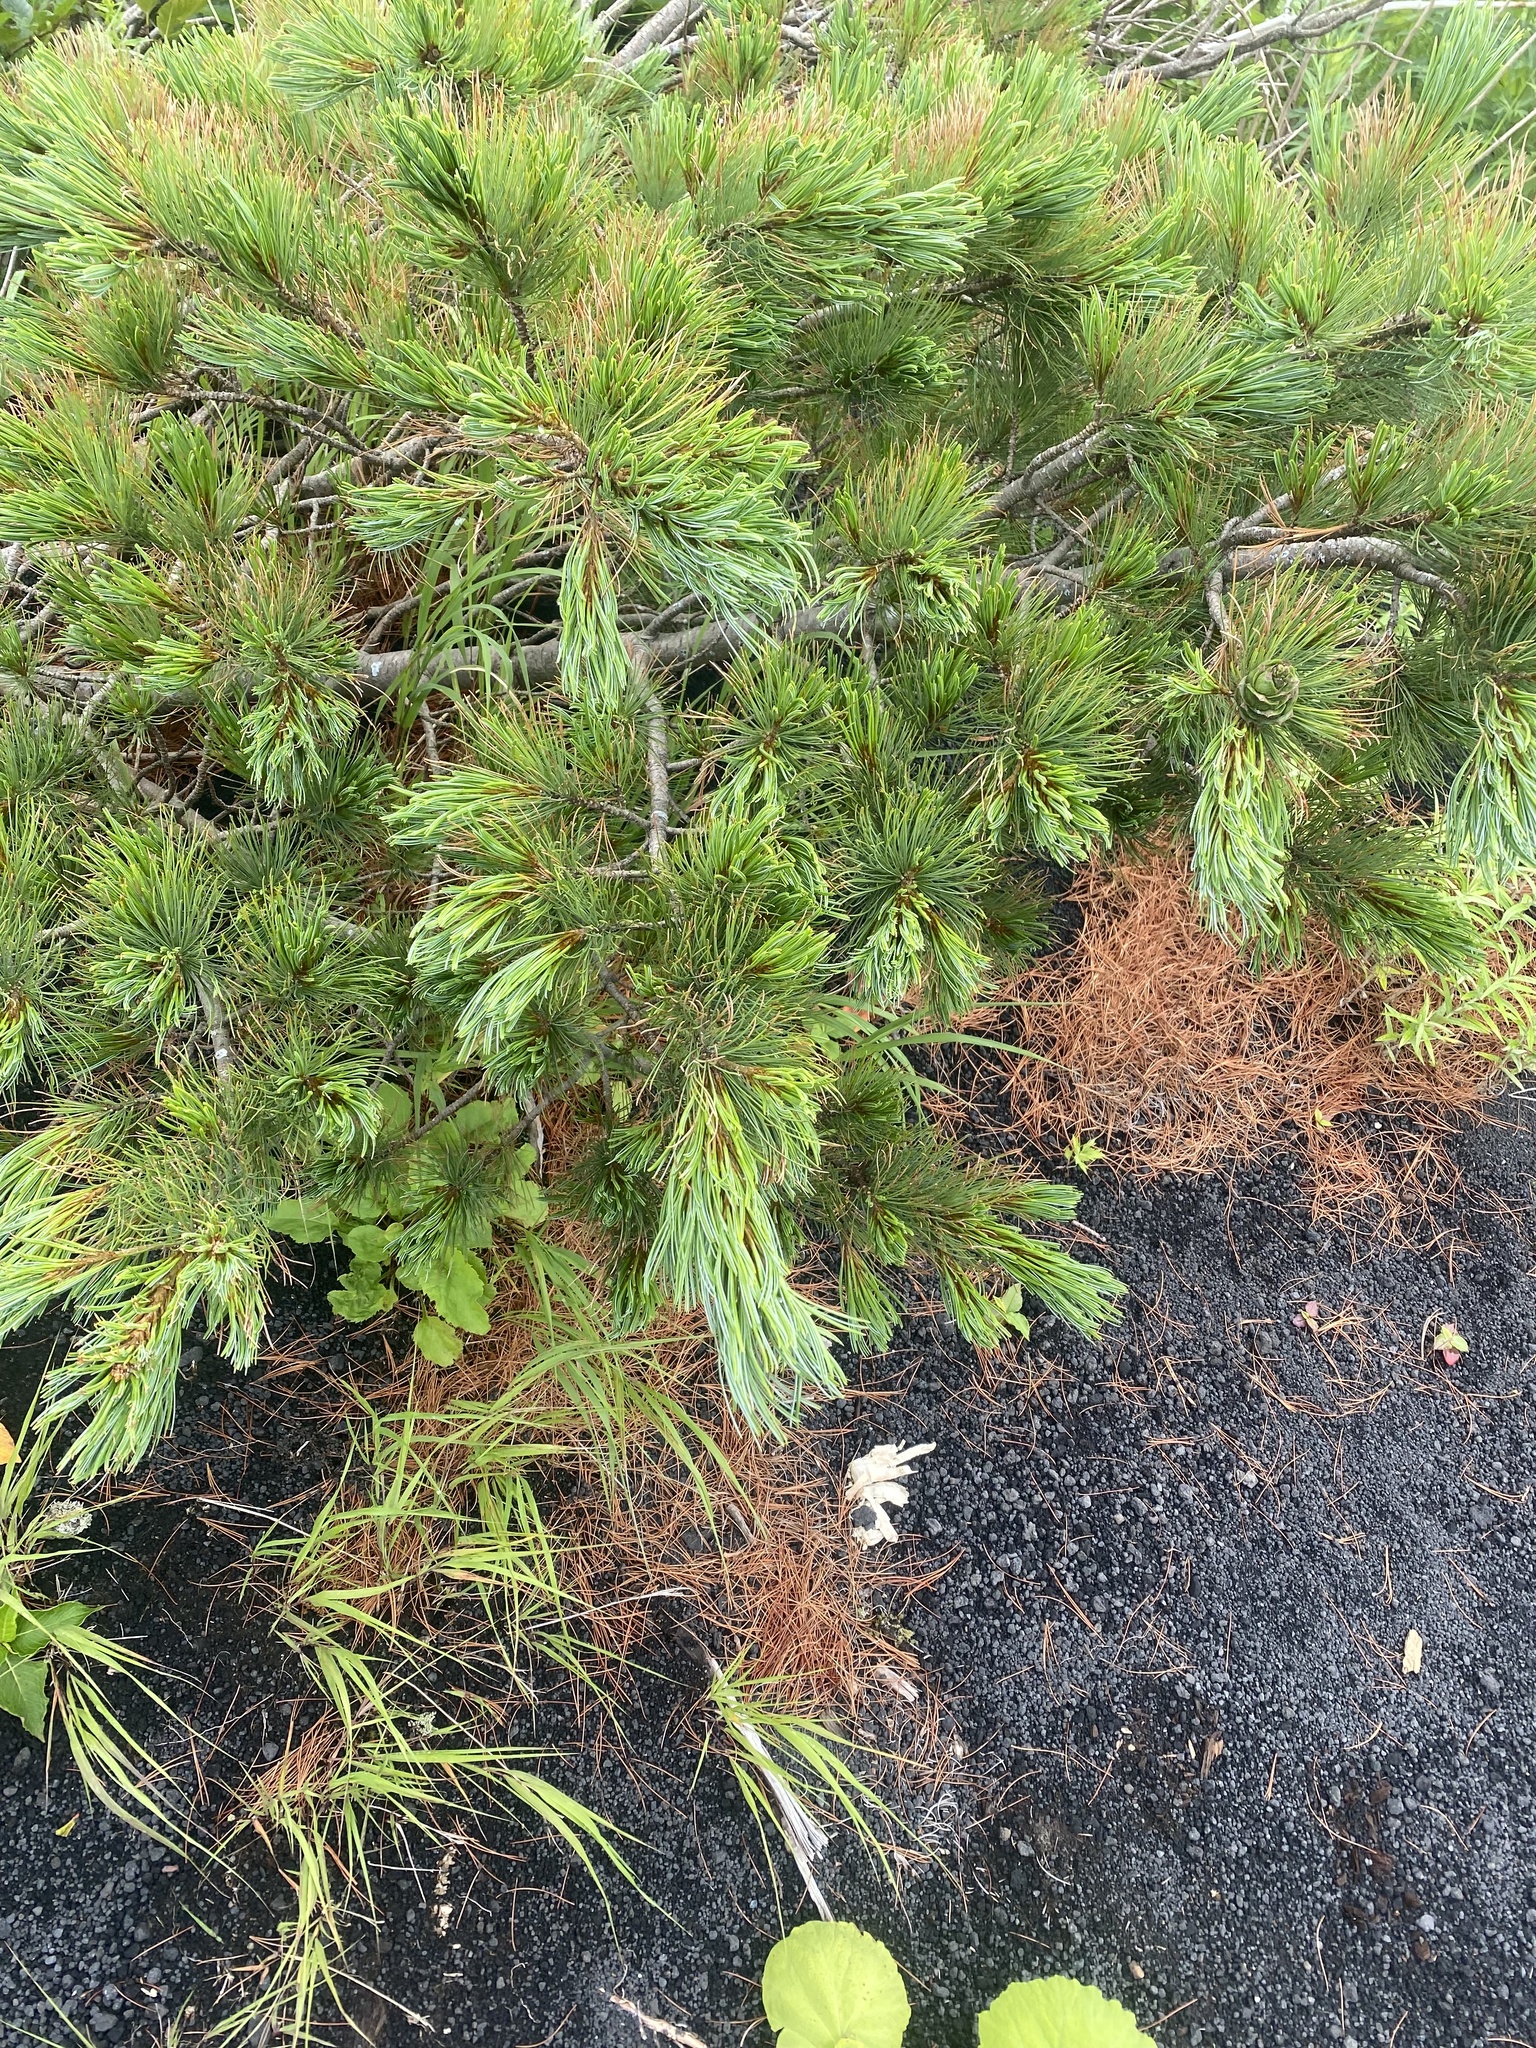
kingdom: Plantae
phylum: Tracheophyta
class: Pinopsida
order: Pinales
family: Pinaceae
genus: Pinus
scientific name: Pinus pumila
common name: Dwarf siberian pine
